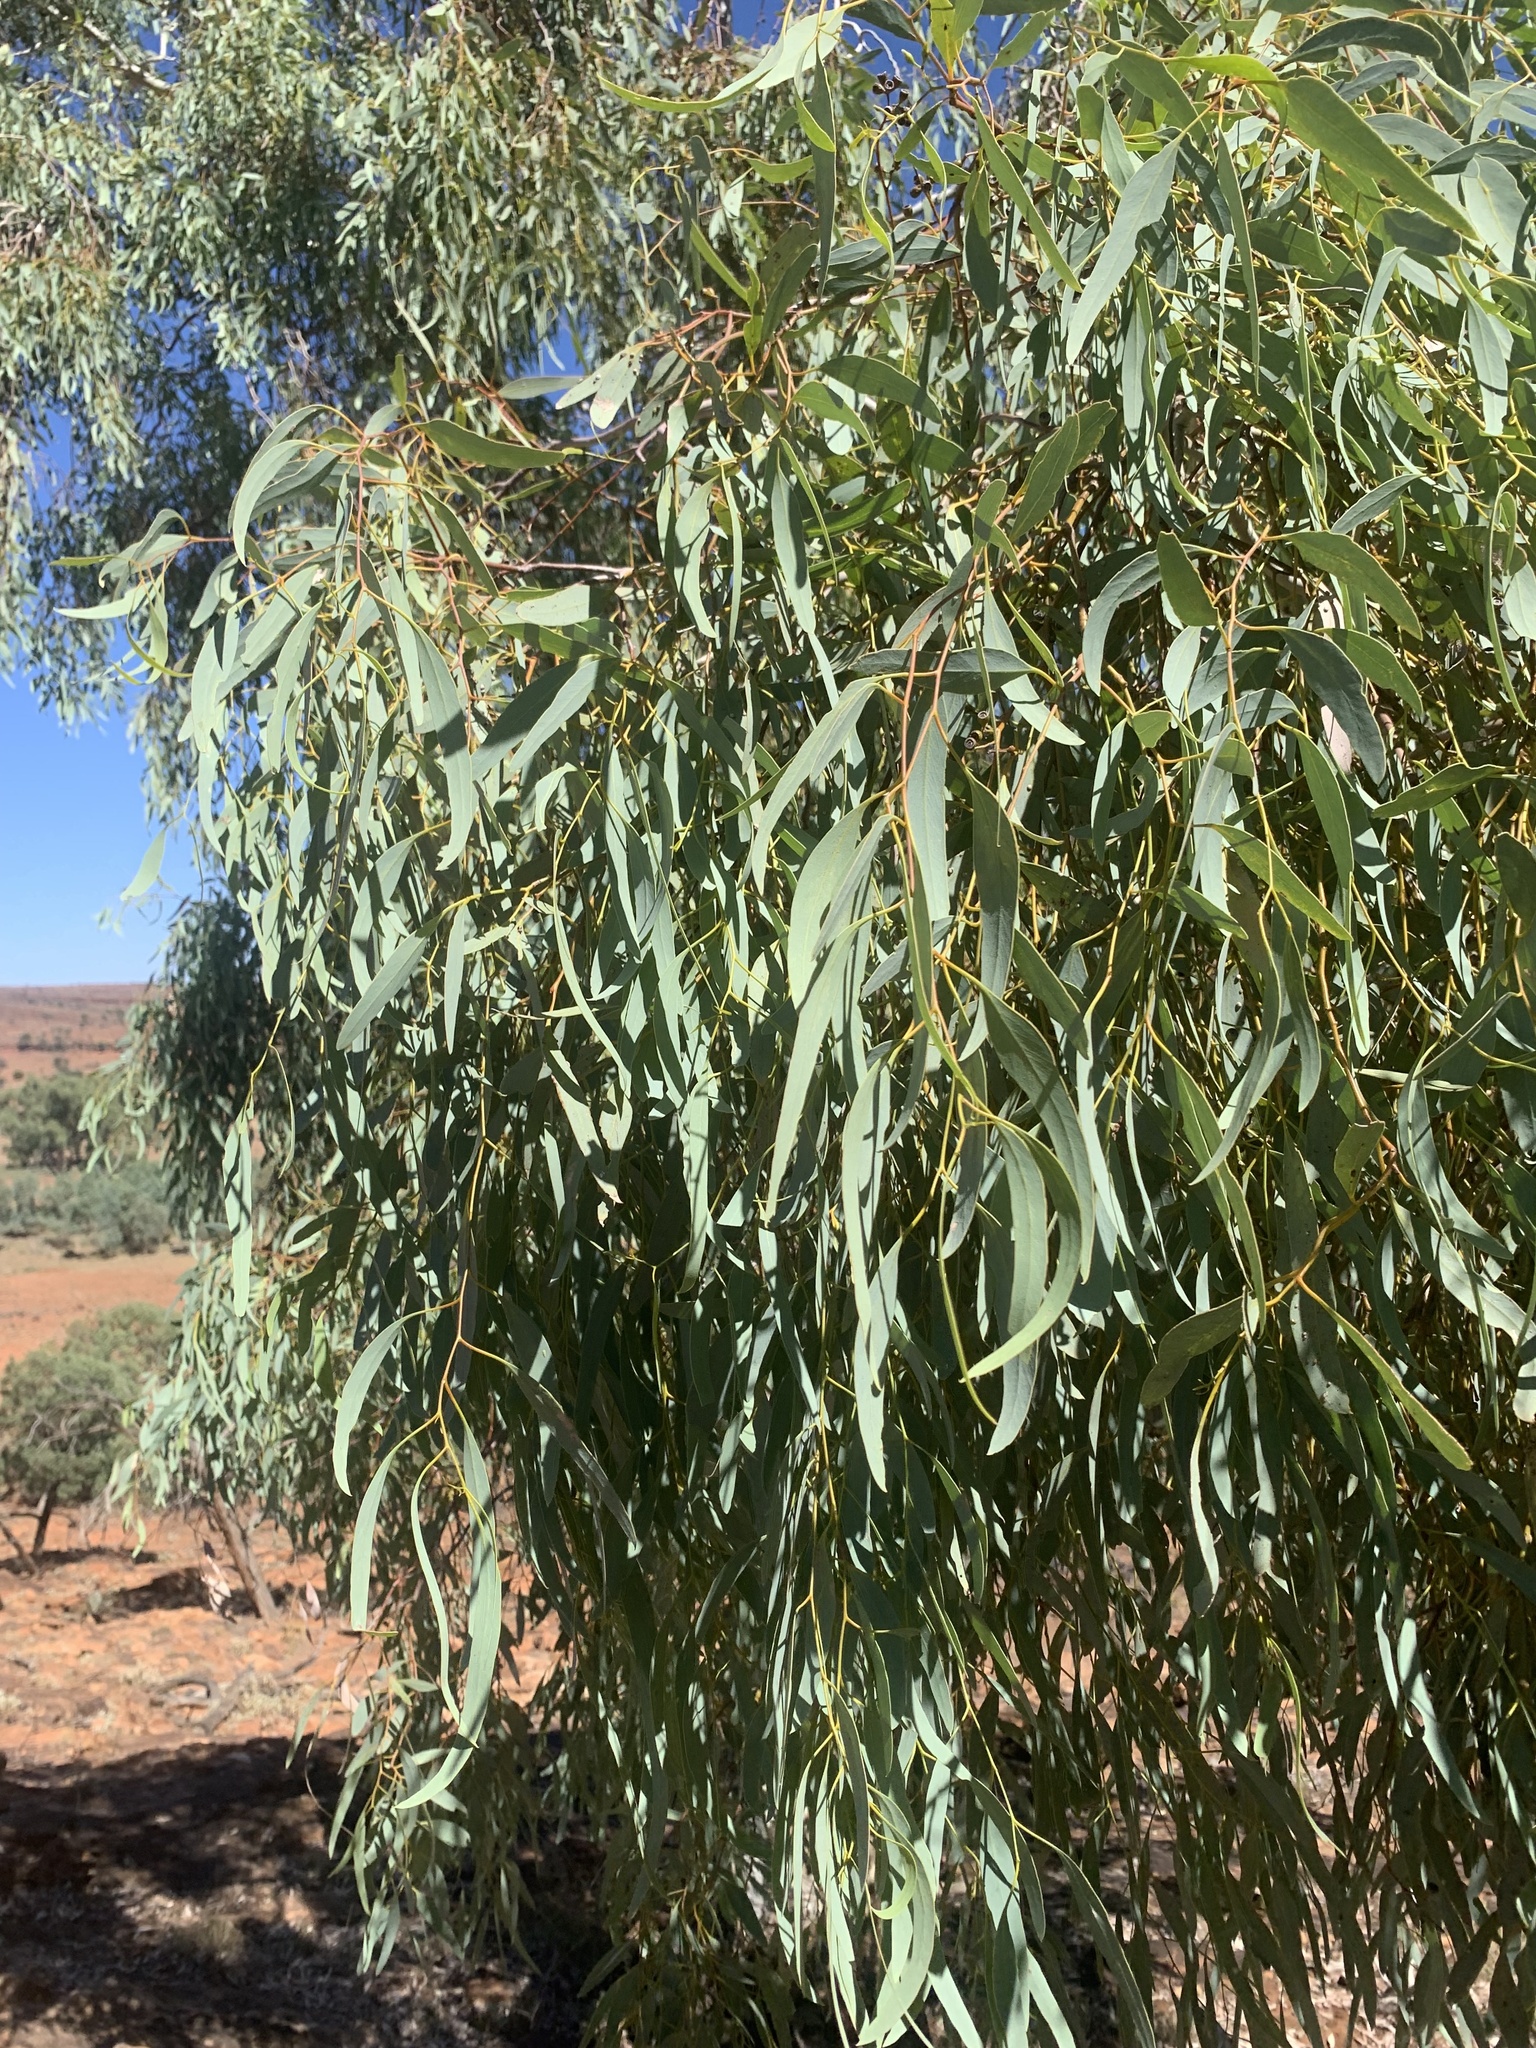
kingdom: Plantae
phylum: Tracheophyta
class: Magnoliopsida
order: Myrtales
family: Myrtaceae
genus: Eucalyptus
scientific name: Eucalyptus intertexta
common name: Bastard coolibah
